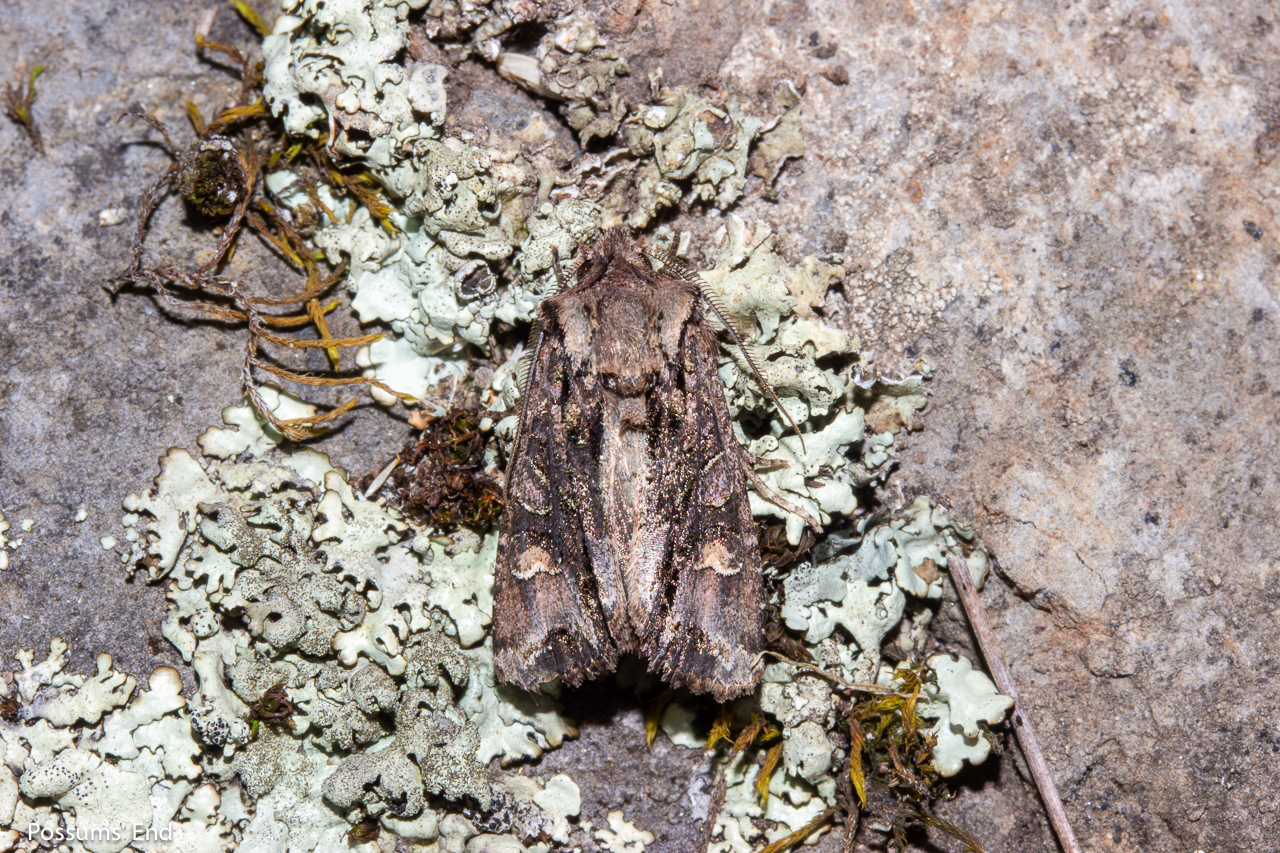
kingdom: Animalia
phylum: Arthropoda
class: Insecta
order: Lepidoptera
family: Noctuidae
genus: Ichneutica
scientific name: Ichneutica skelloni
